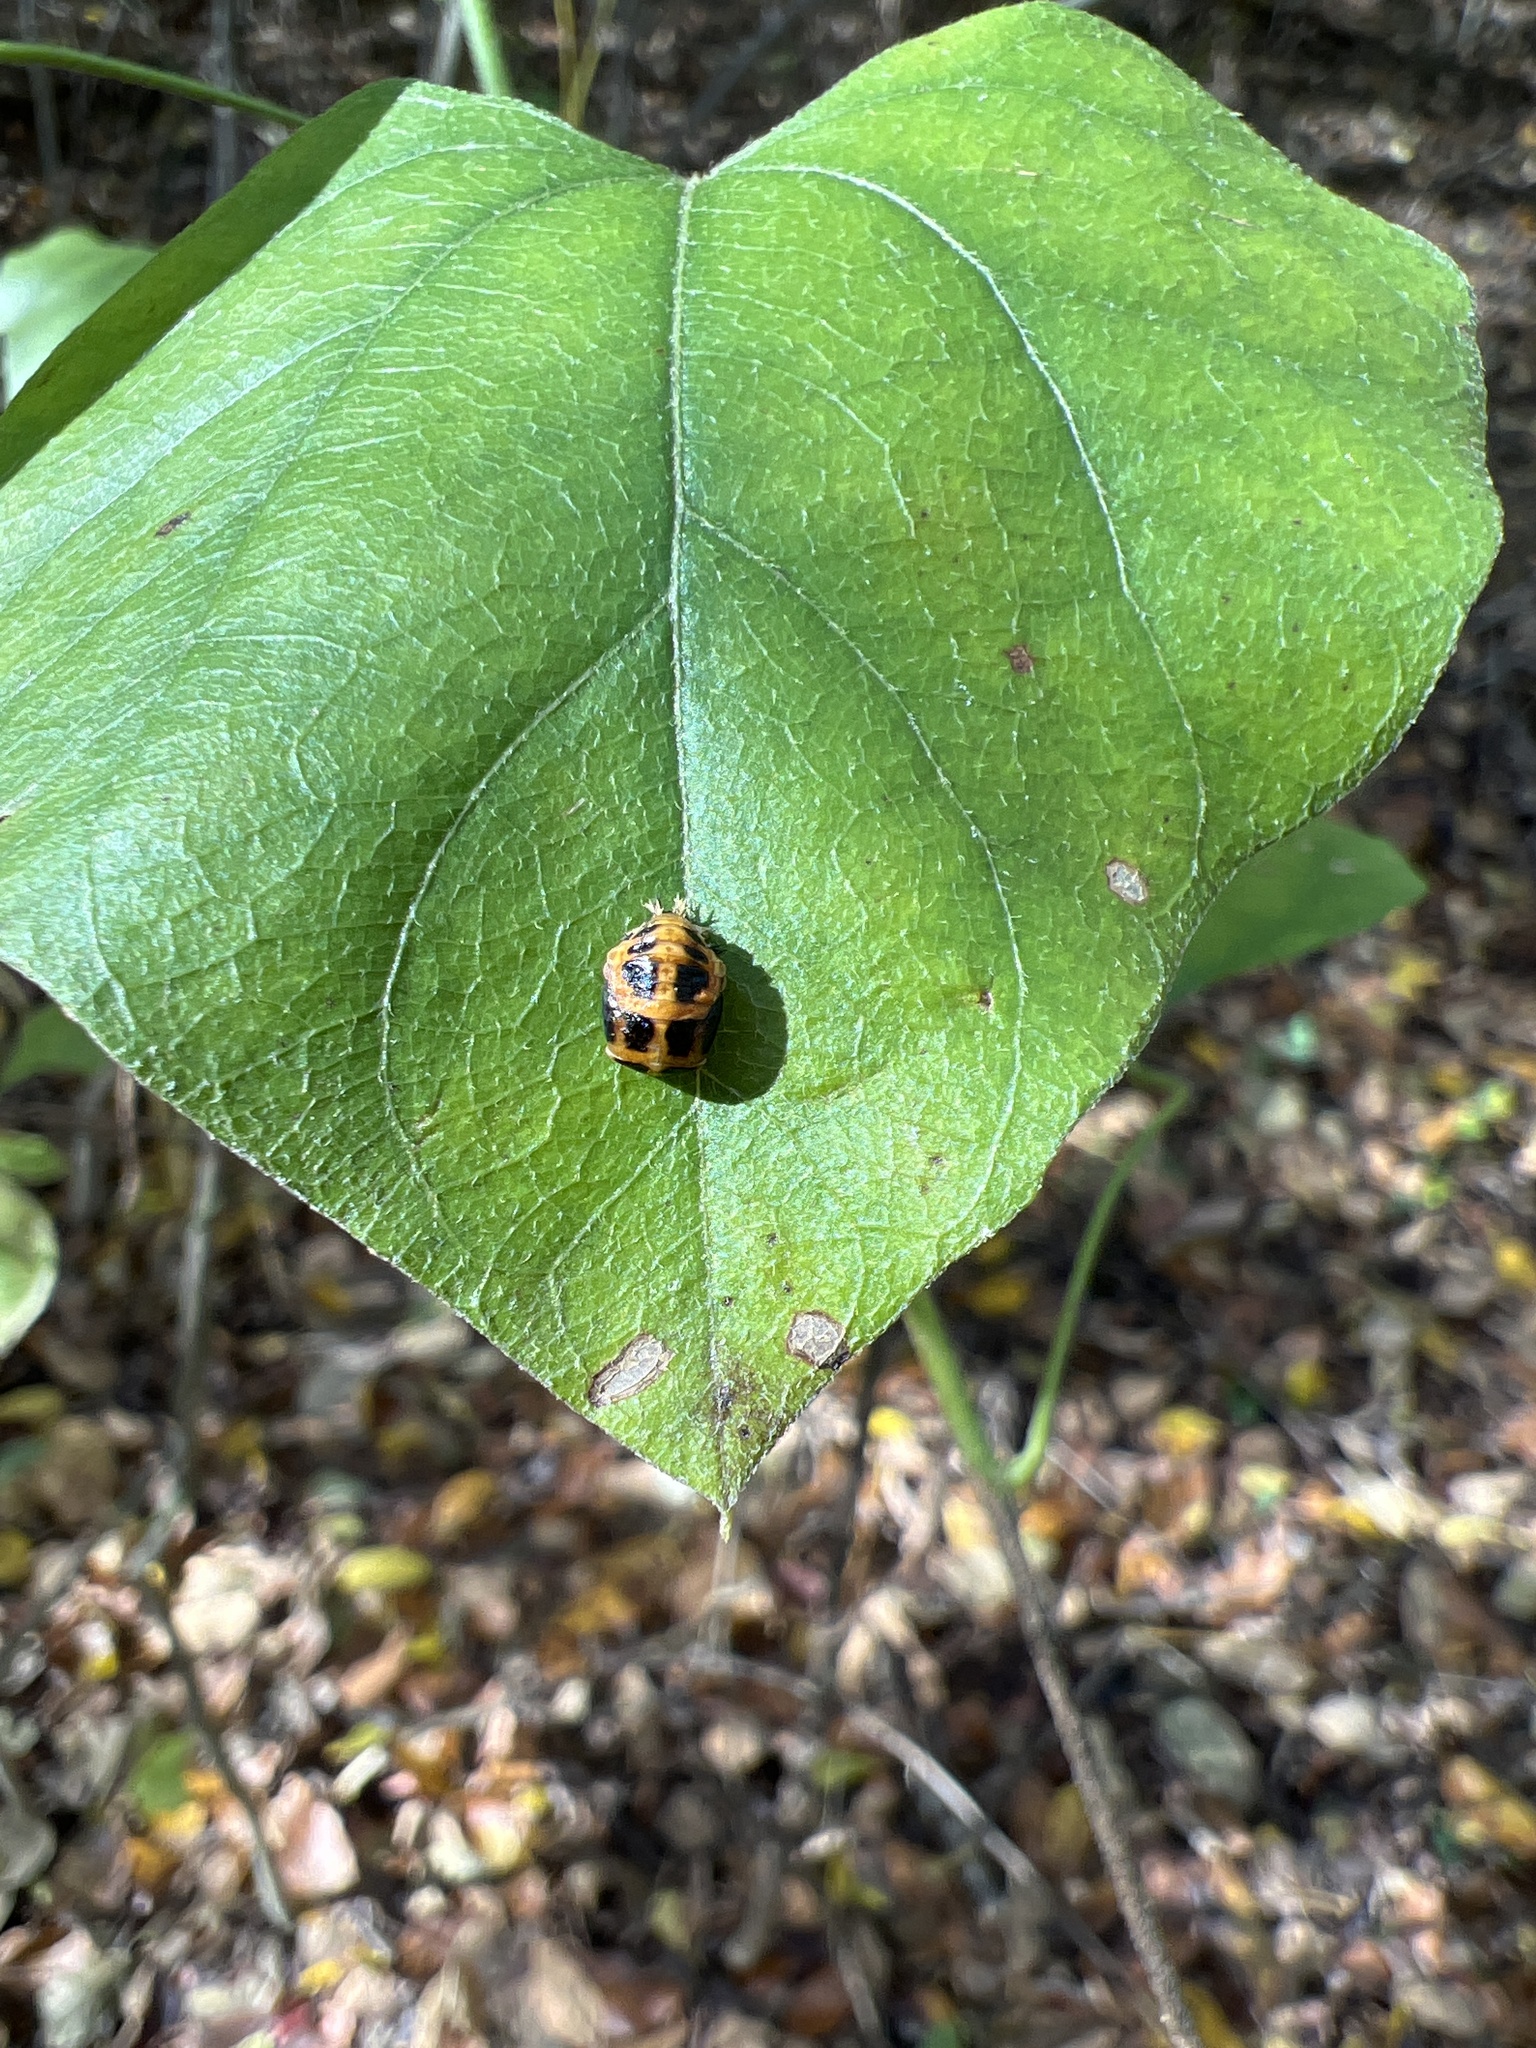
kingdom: Animalia
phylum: Arthropoda
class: Insecta
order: Coleoptera
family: Coccinellidae
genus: Harmonia
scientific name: Harmonia axyridis
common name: Harlequin ladybird
